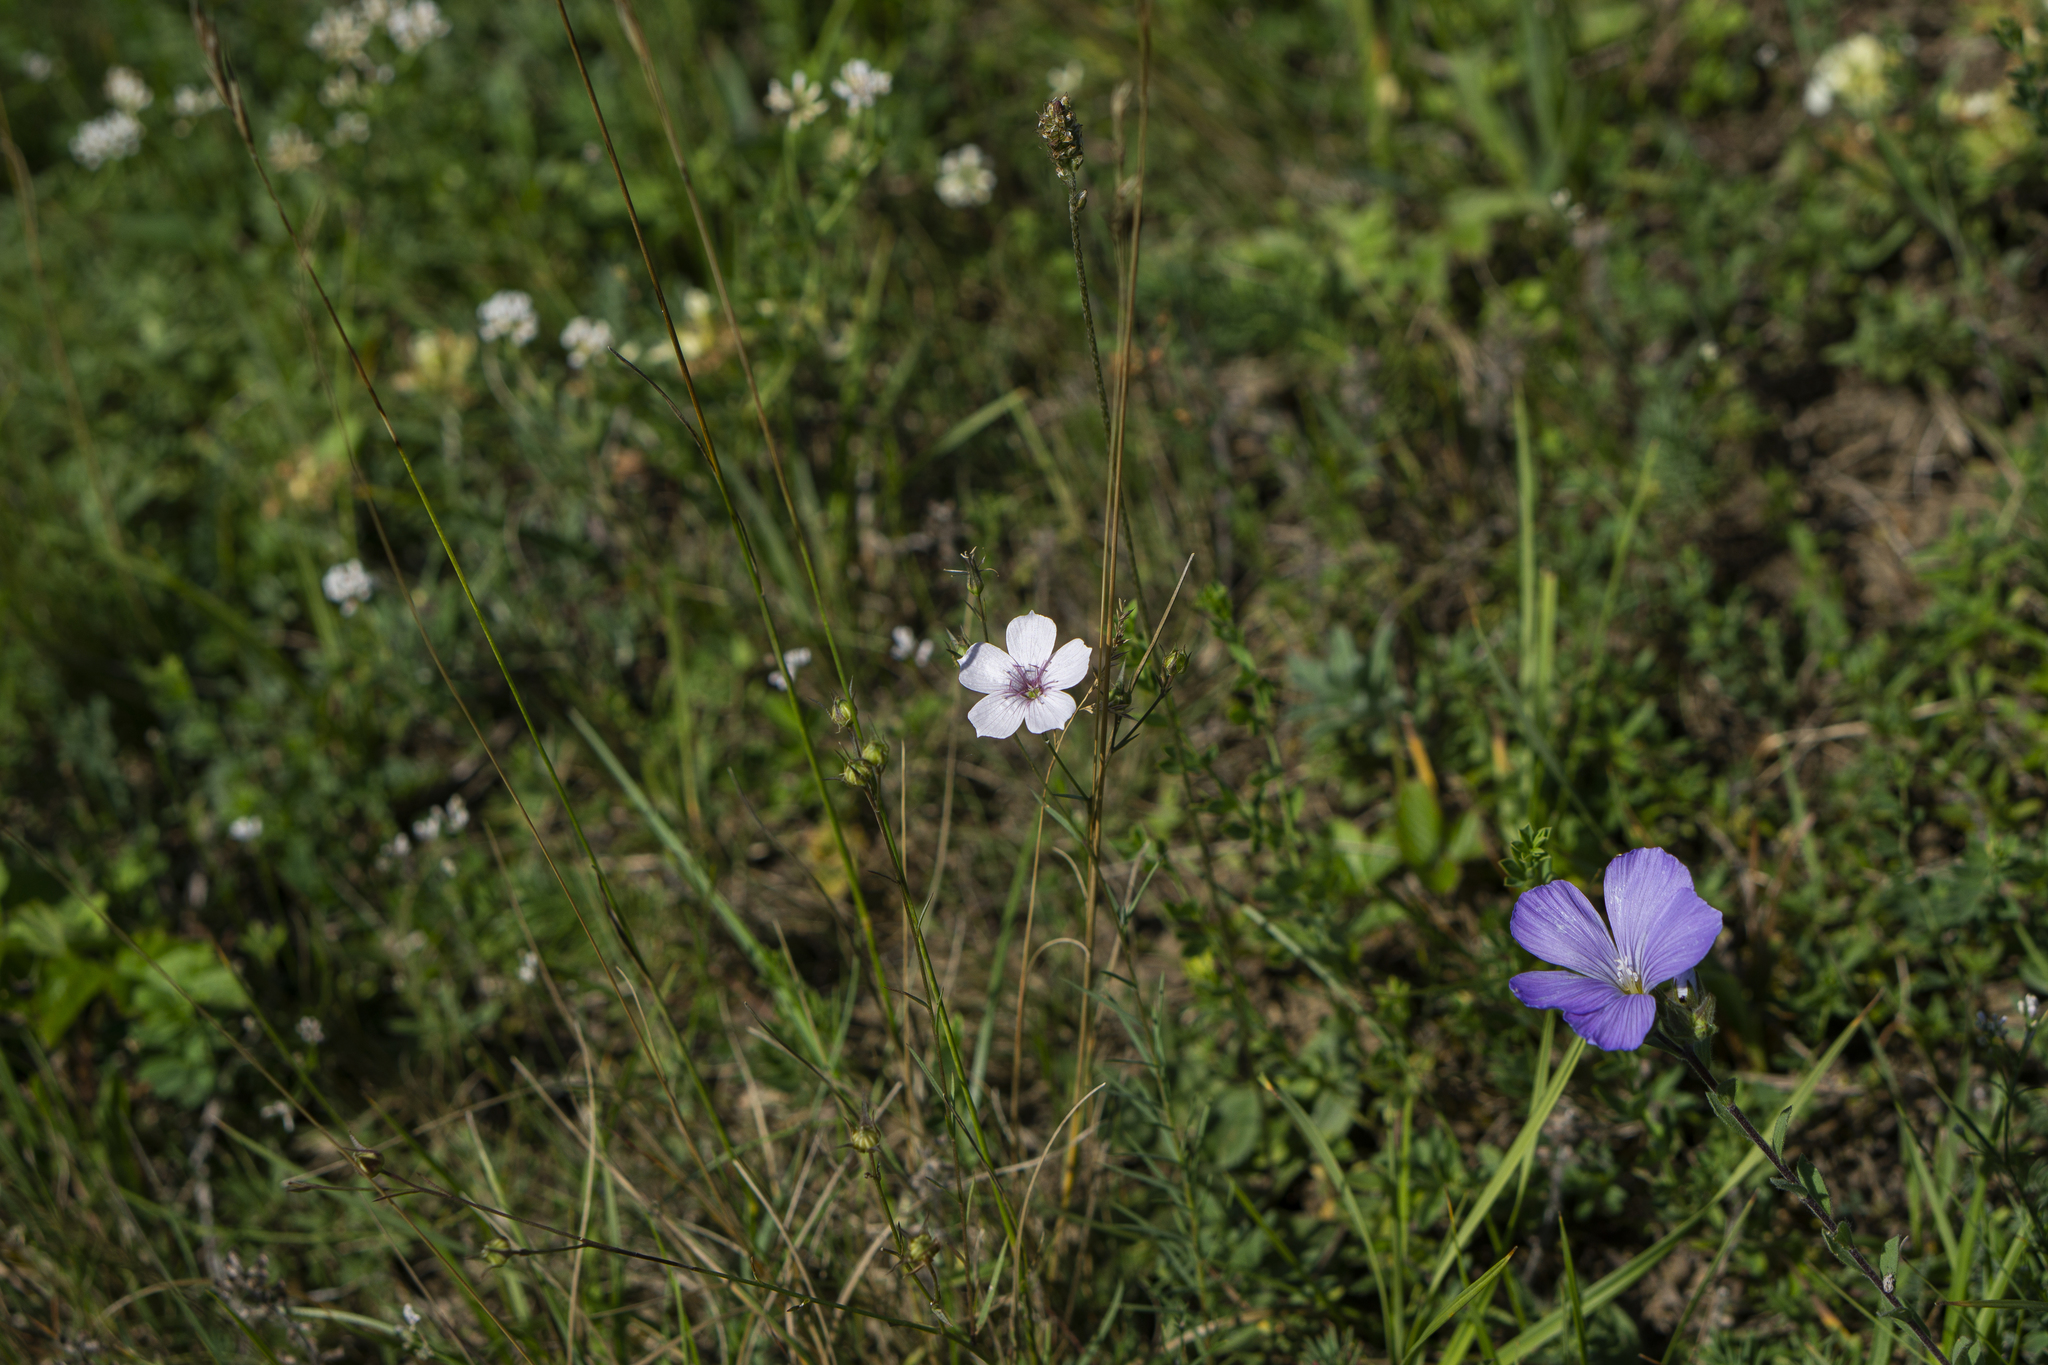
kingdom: Plantae
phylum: Tracheophyta
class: Magnoliopsida
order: Malpighiales
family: Linaceae
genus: Linum
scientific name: Linum tenuifolium
